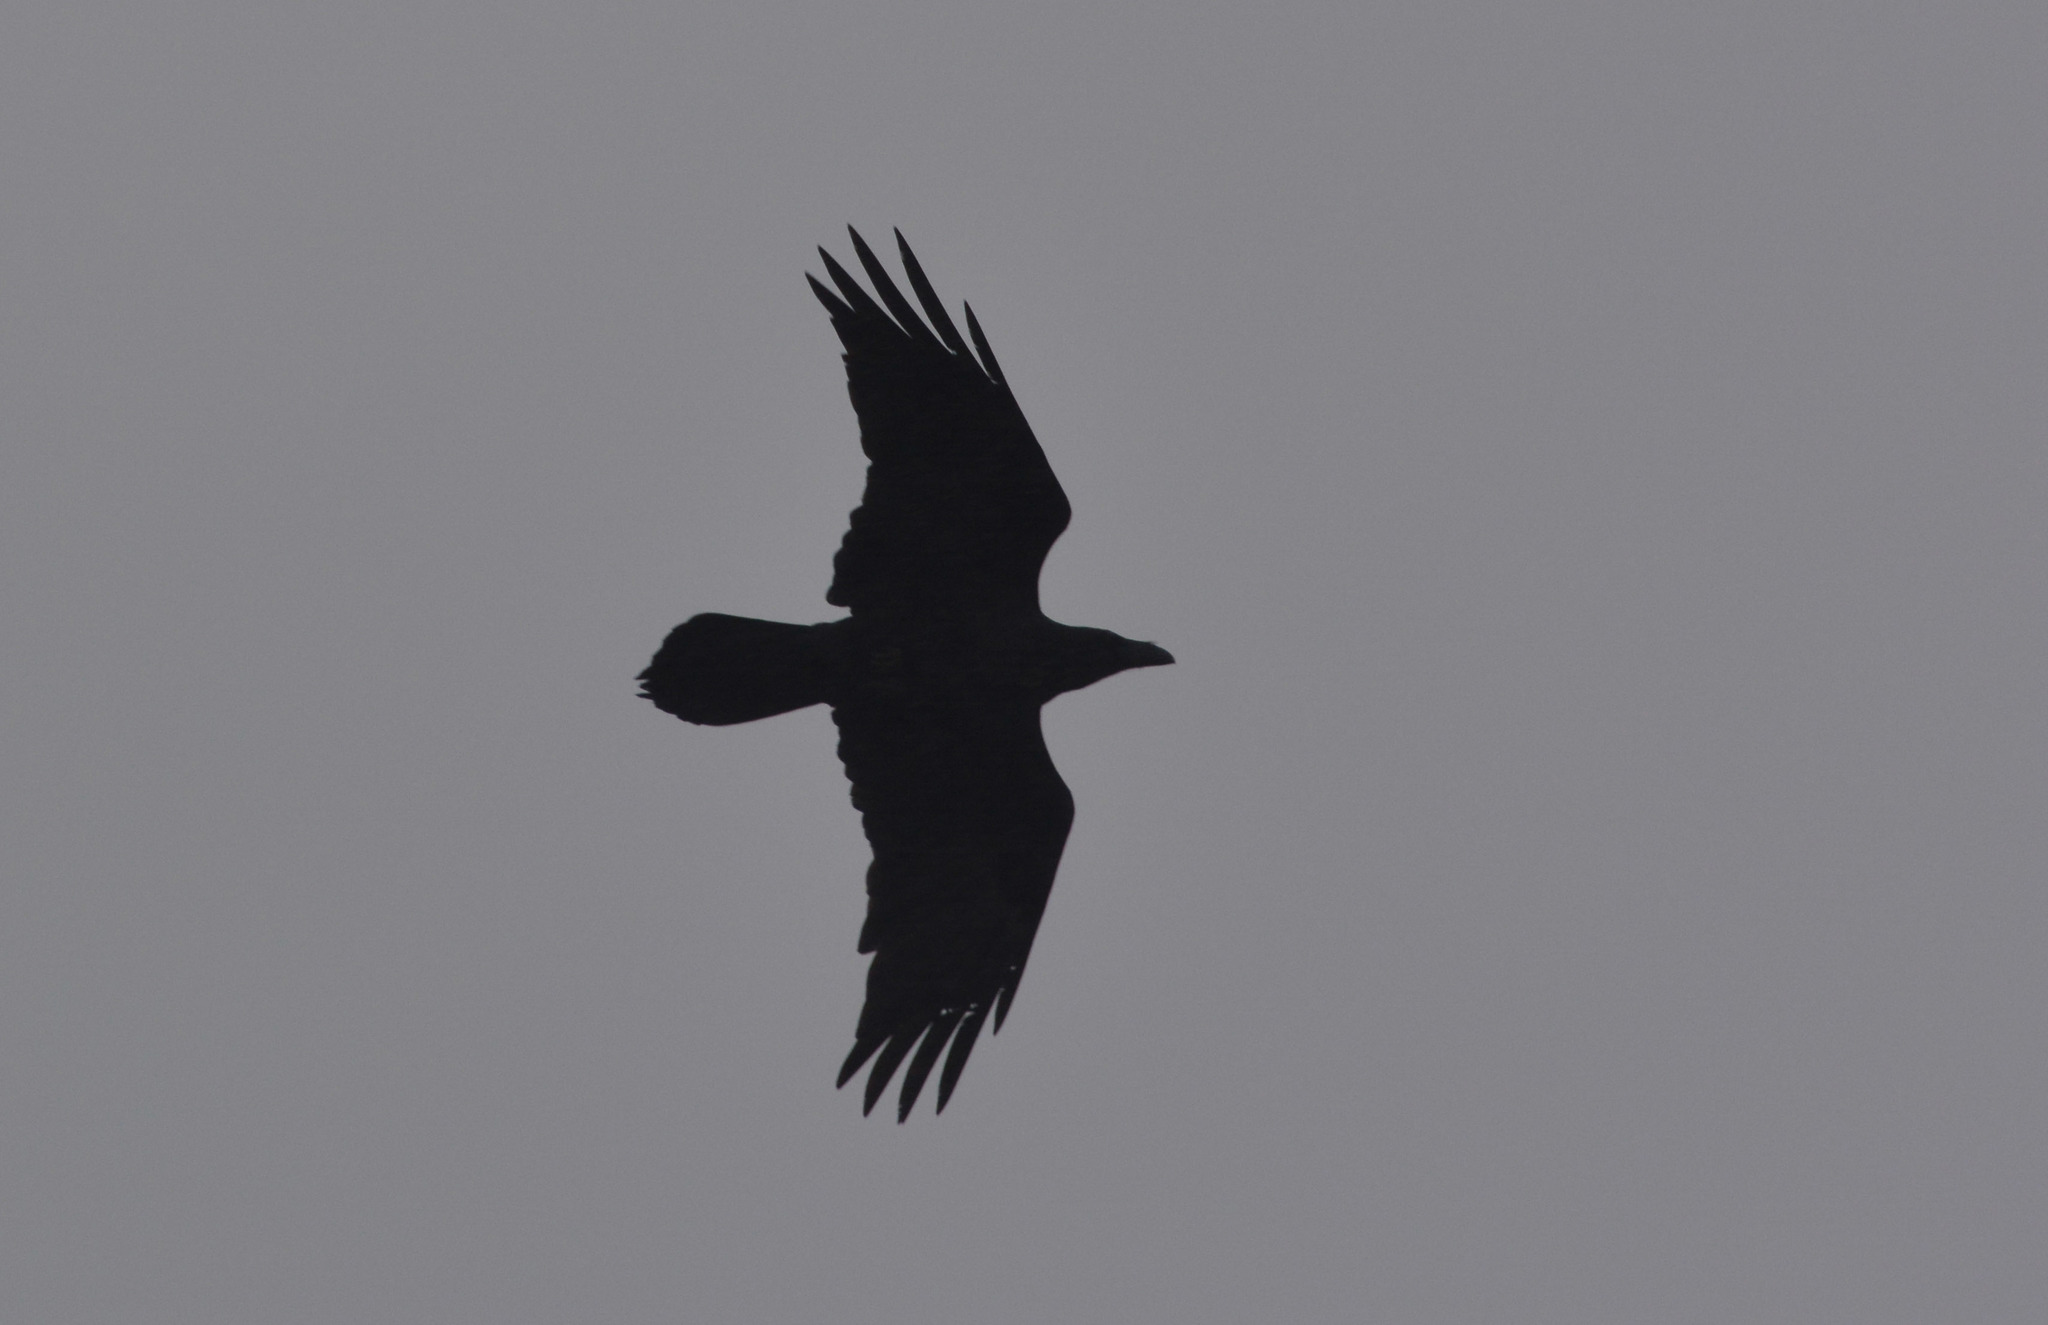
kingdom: Animalia
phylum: Chordata
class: Aves
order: Passeriformes
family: Corvidae
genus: Corvus
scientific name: Corvus corax
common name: Common raven
